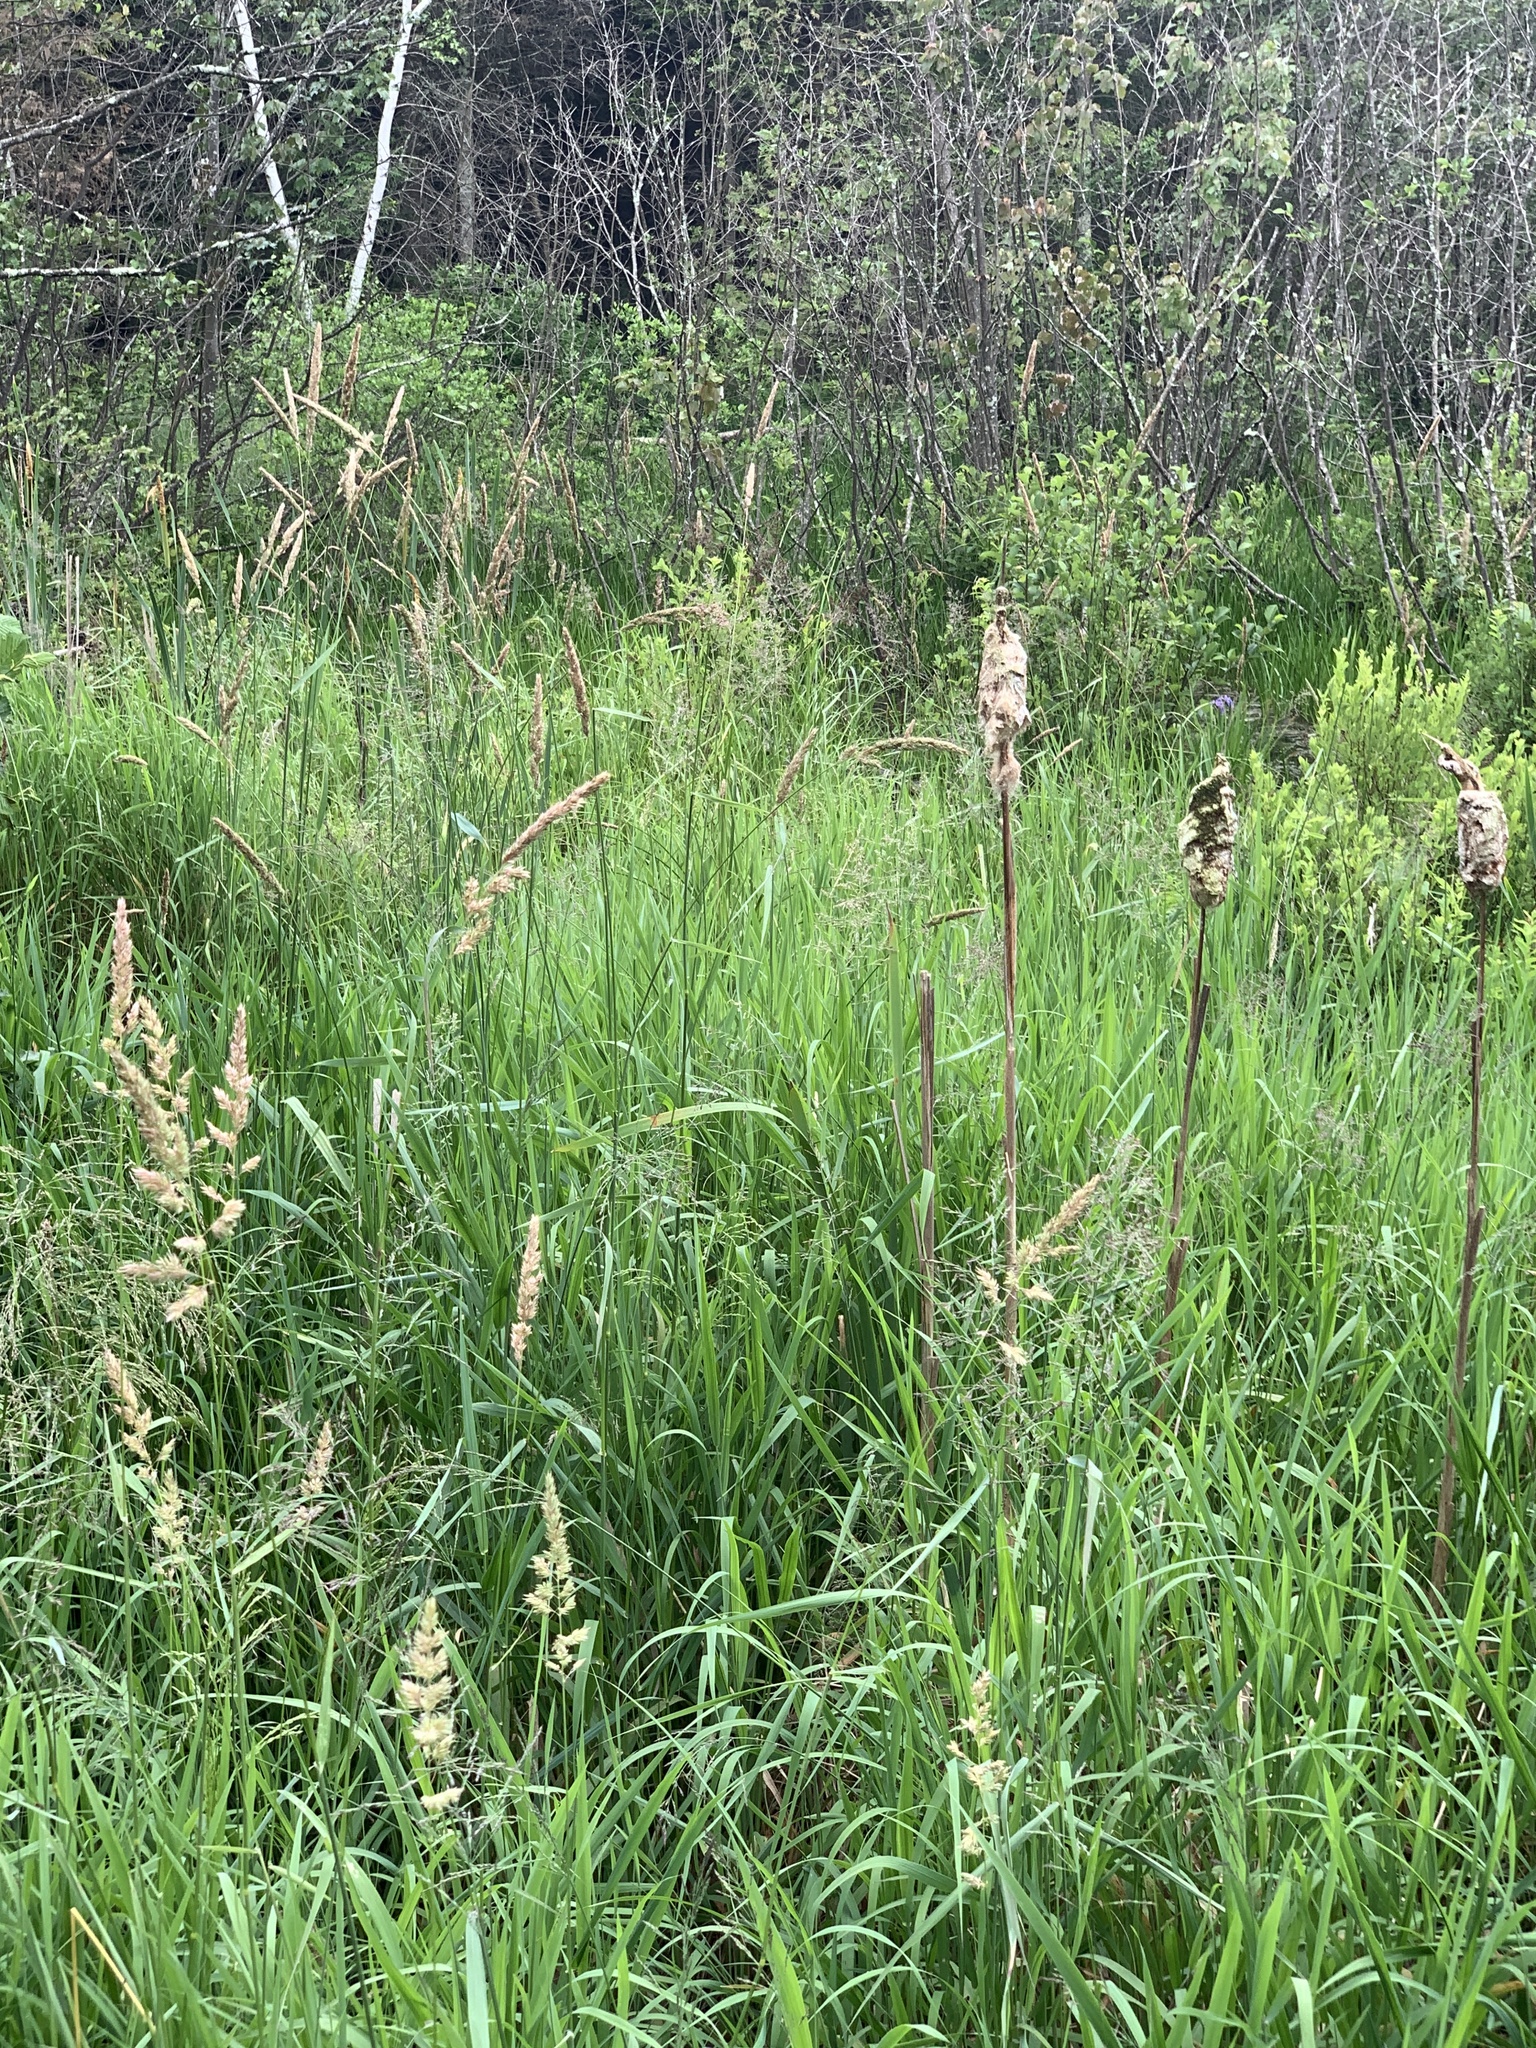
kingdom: Plantae
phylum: Tracheophyta
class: Liliopsida
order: Poales
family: Poaceae
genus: Phalaris
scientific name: Phalaris arundinacea
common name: Reed canary-grass
